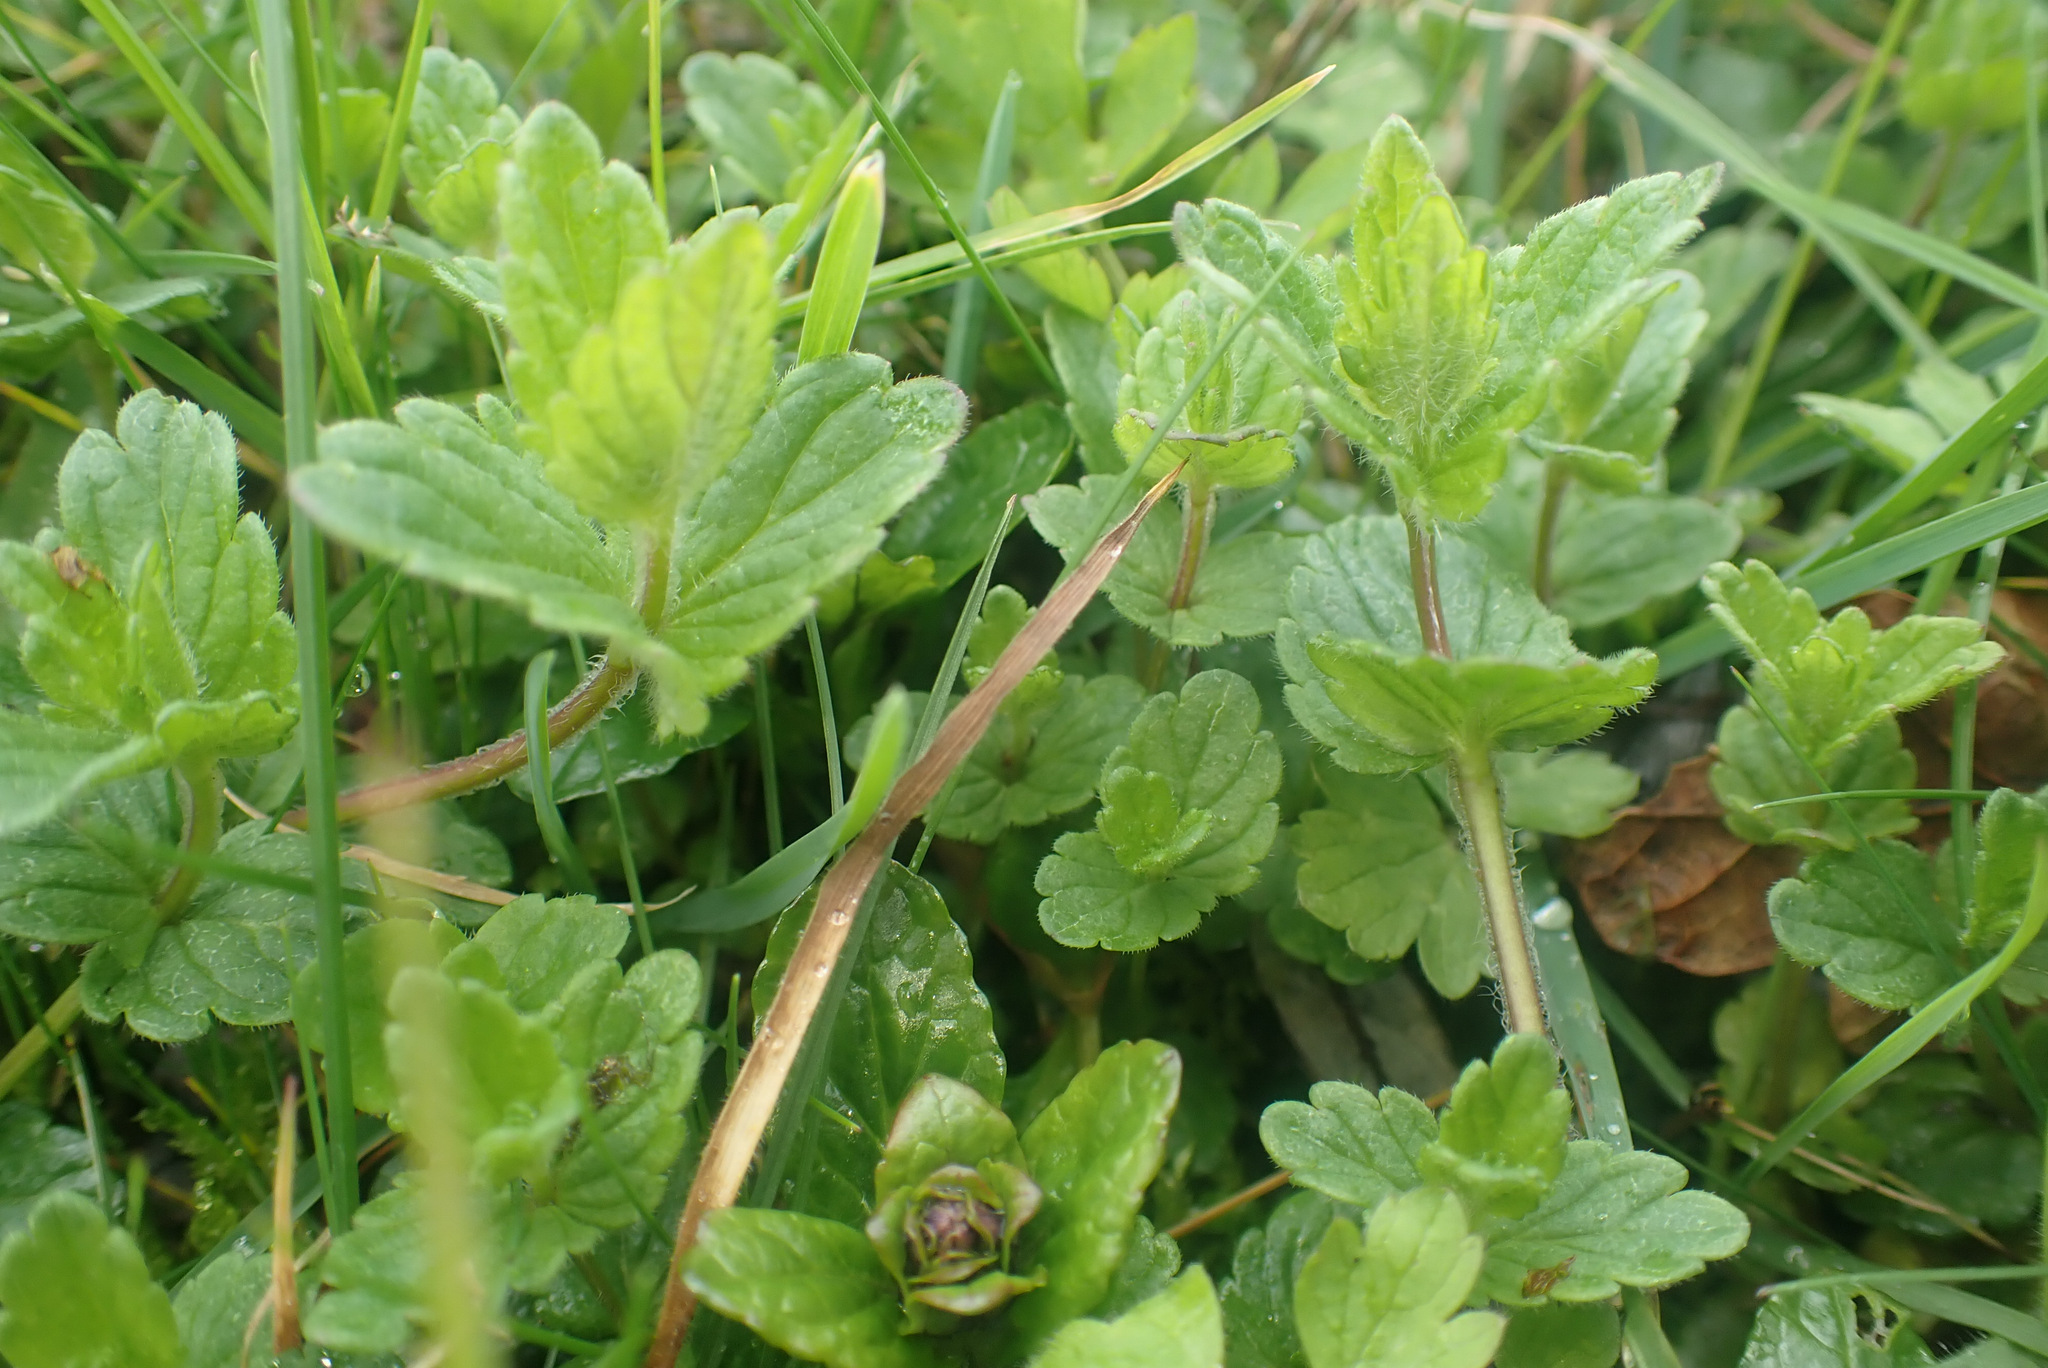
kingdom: Plantae
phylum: Tracheophyta
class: Magnoliopsida
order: Lamiales
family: Plantaginaceae
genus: Veronica
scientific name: Veronica chamaedrys
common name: Germander speedwell
